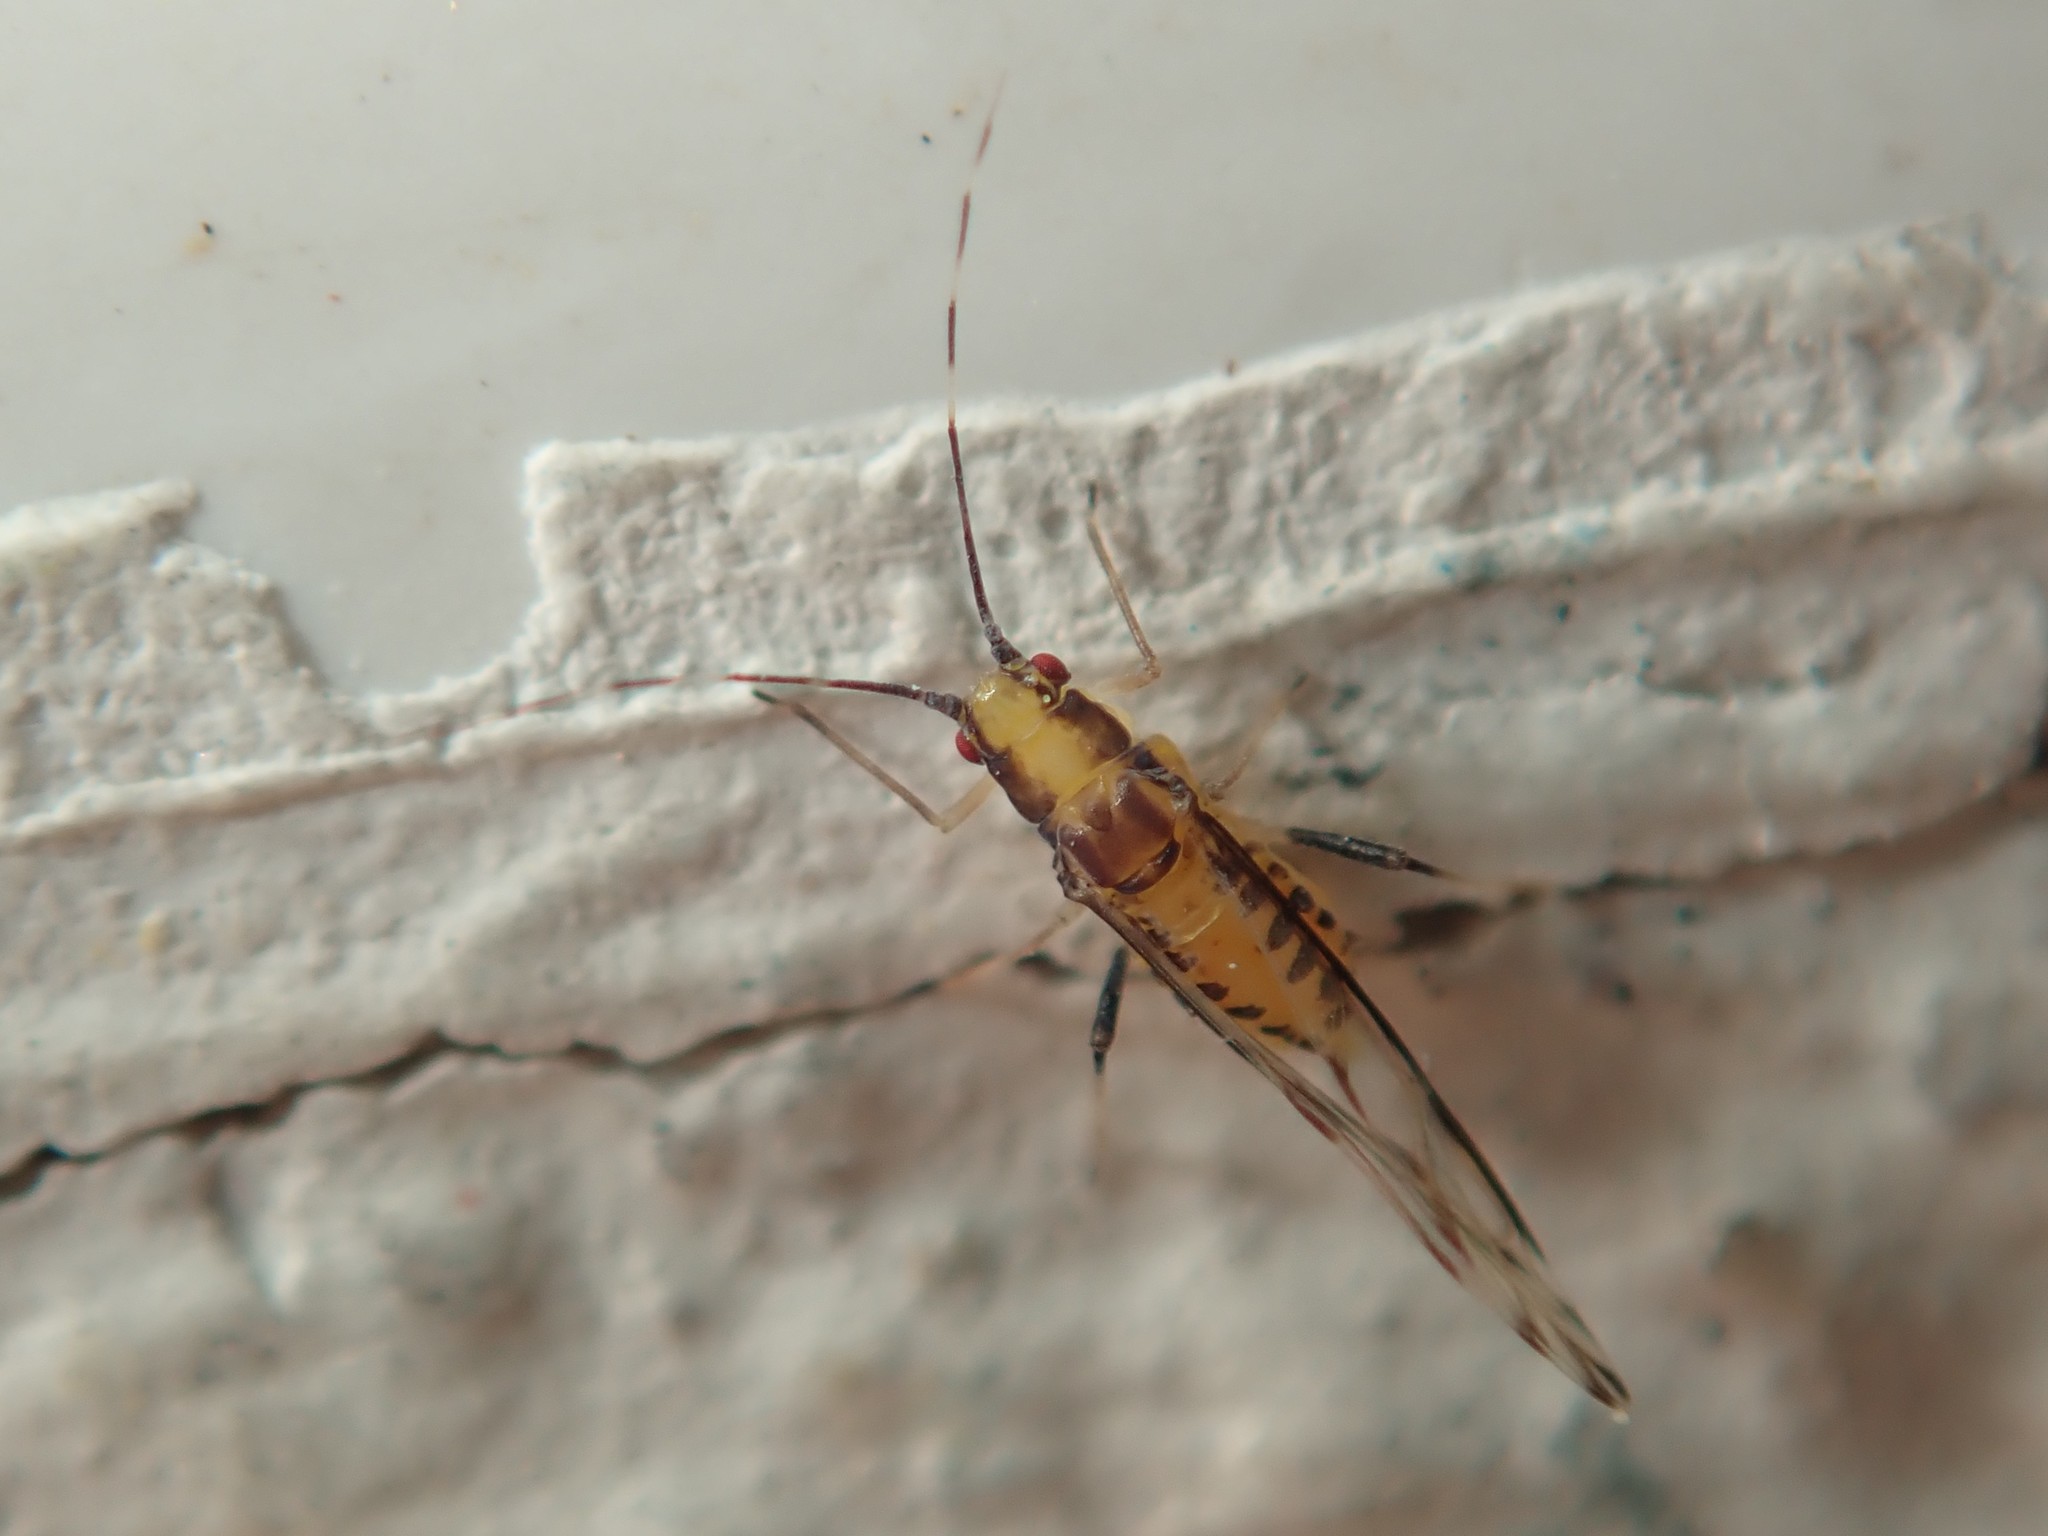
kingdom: Animalia
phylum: Arthropoda
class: Insecta
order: Hemiptera
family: Aphididae
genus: Eucallipterus
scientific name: Eucallipterus tiliae
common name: Aphid
